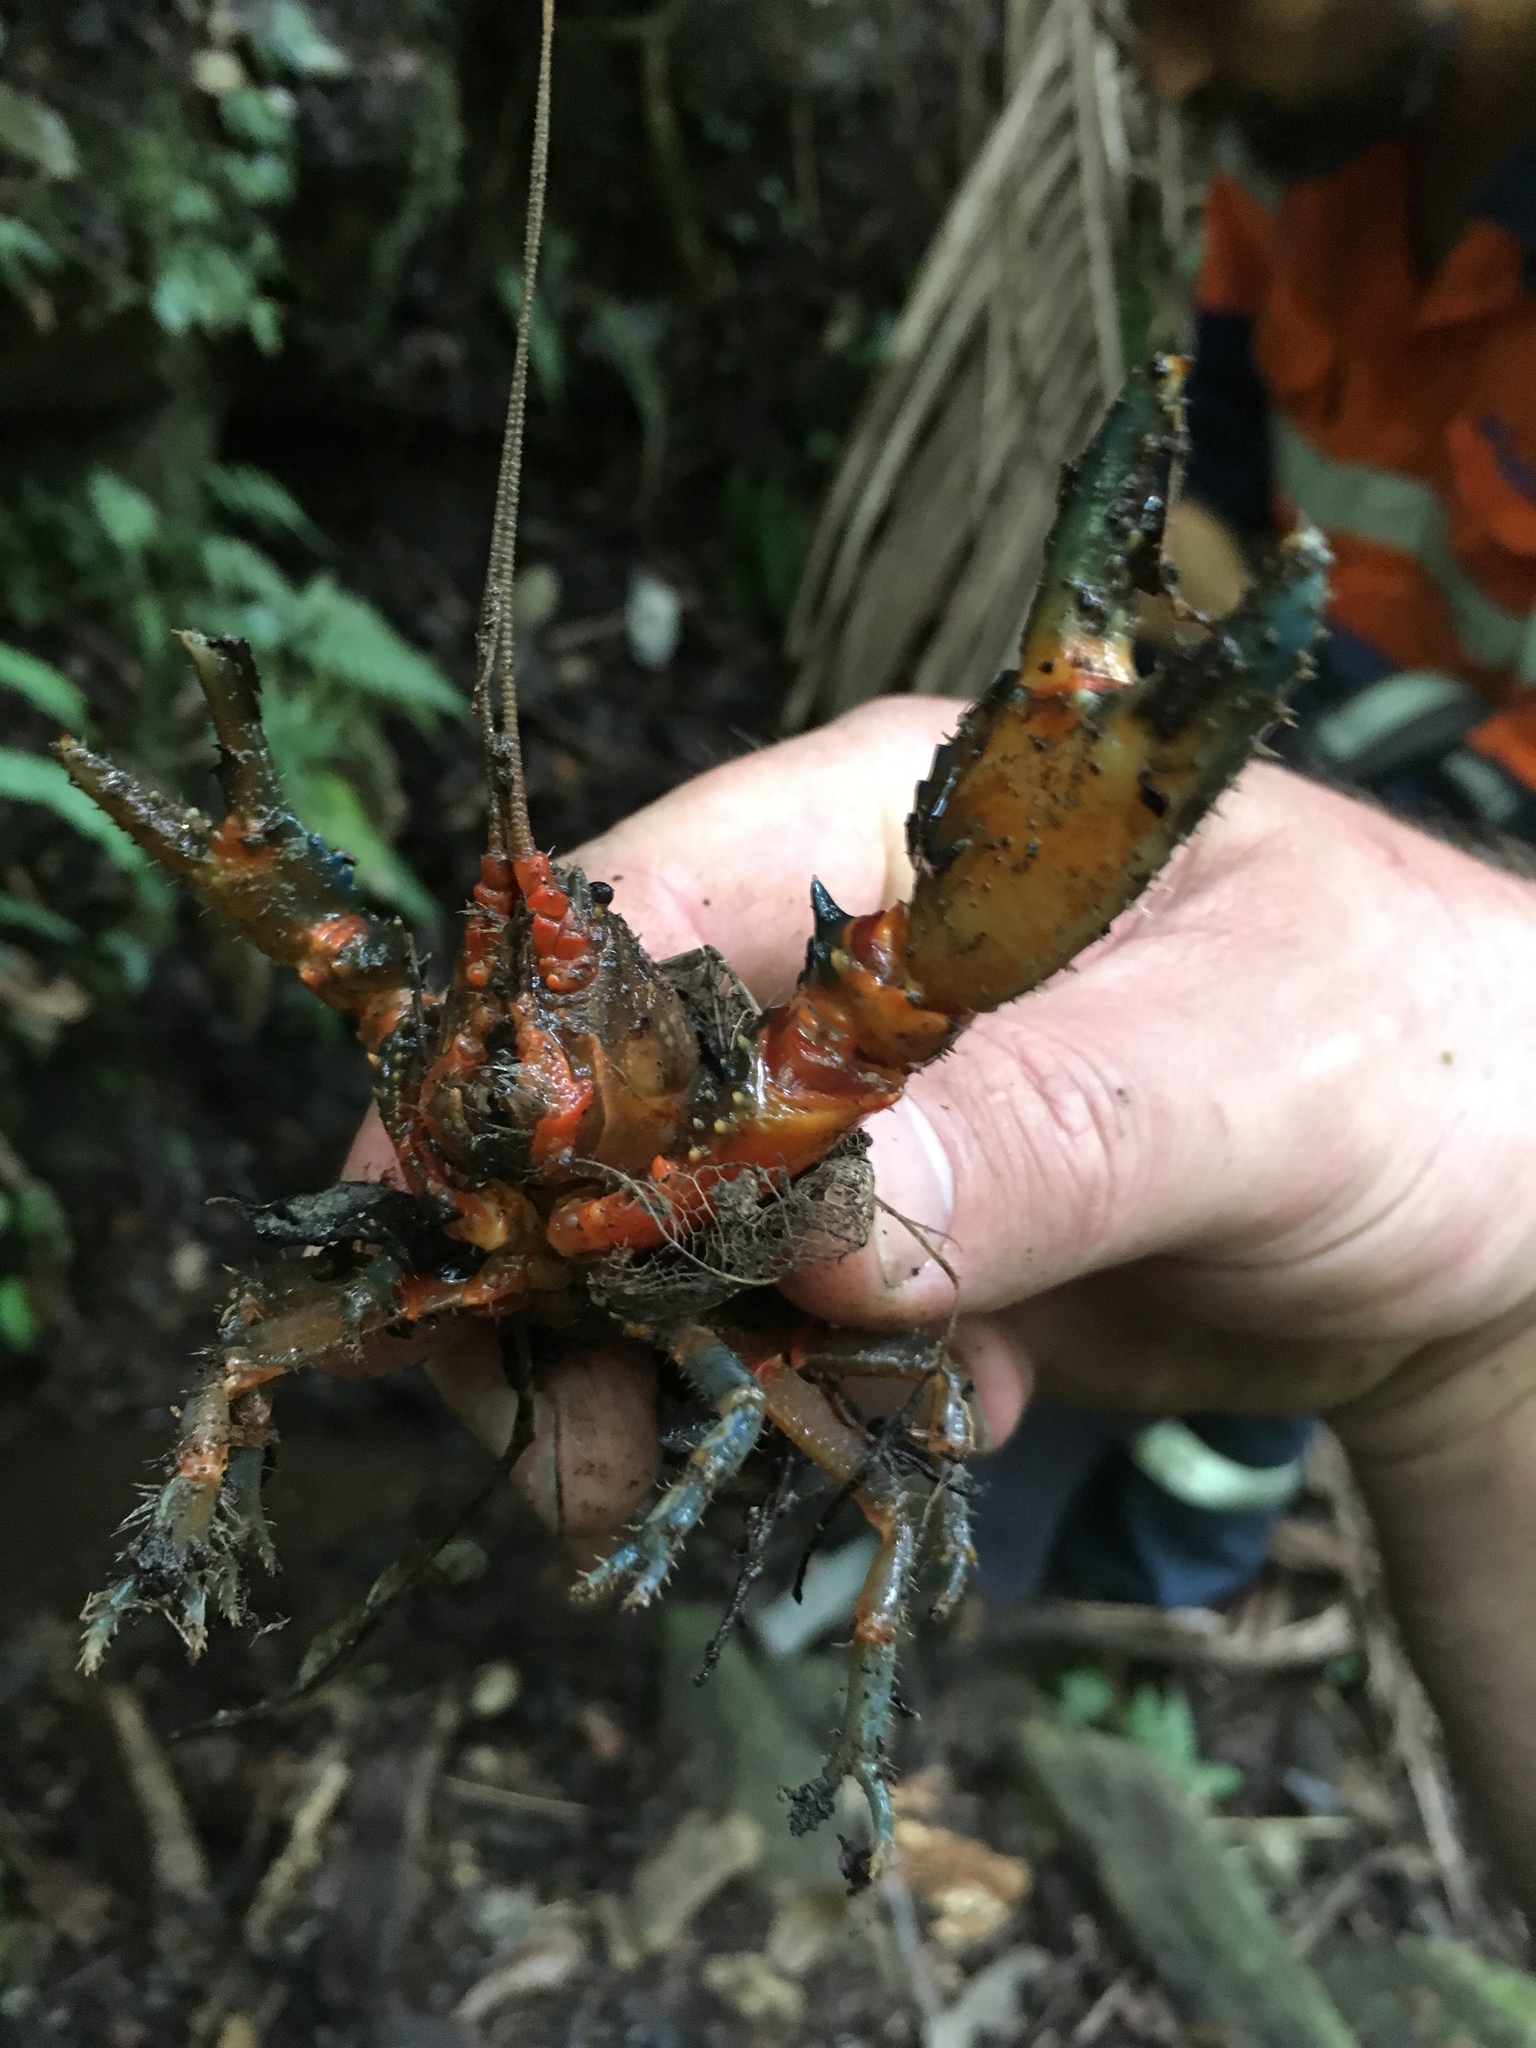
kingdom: Animalia
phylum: Arthropoda
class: Malacostraca
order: Decapoda
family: Parastacidae
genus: Euastacus
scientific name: Euastacus neohirsutus
